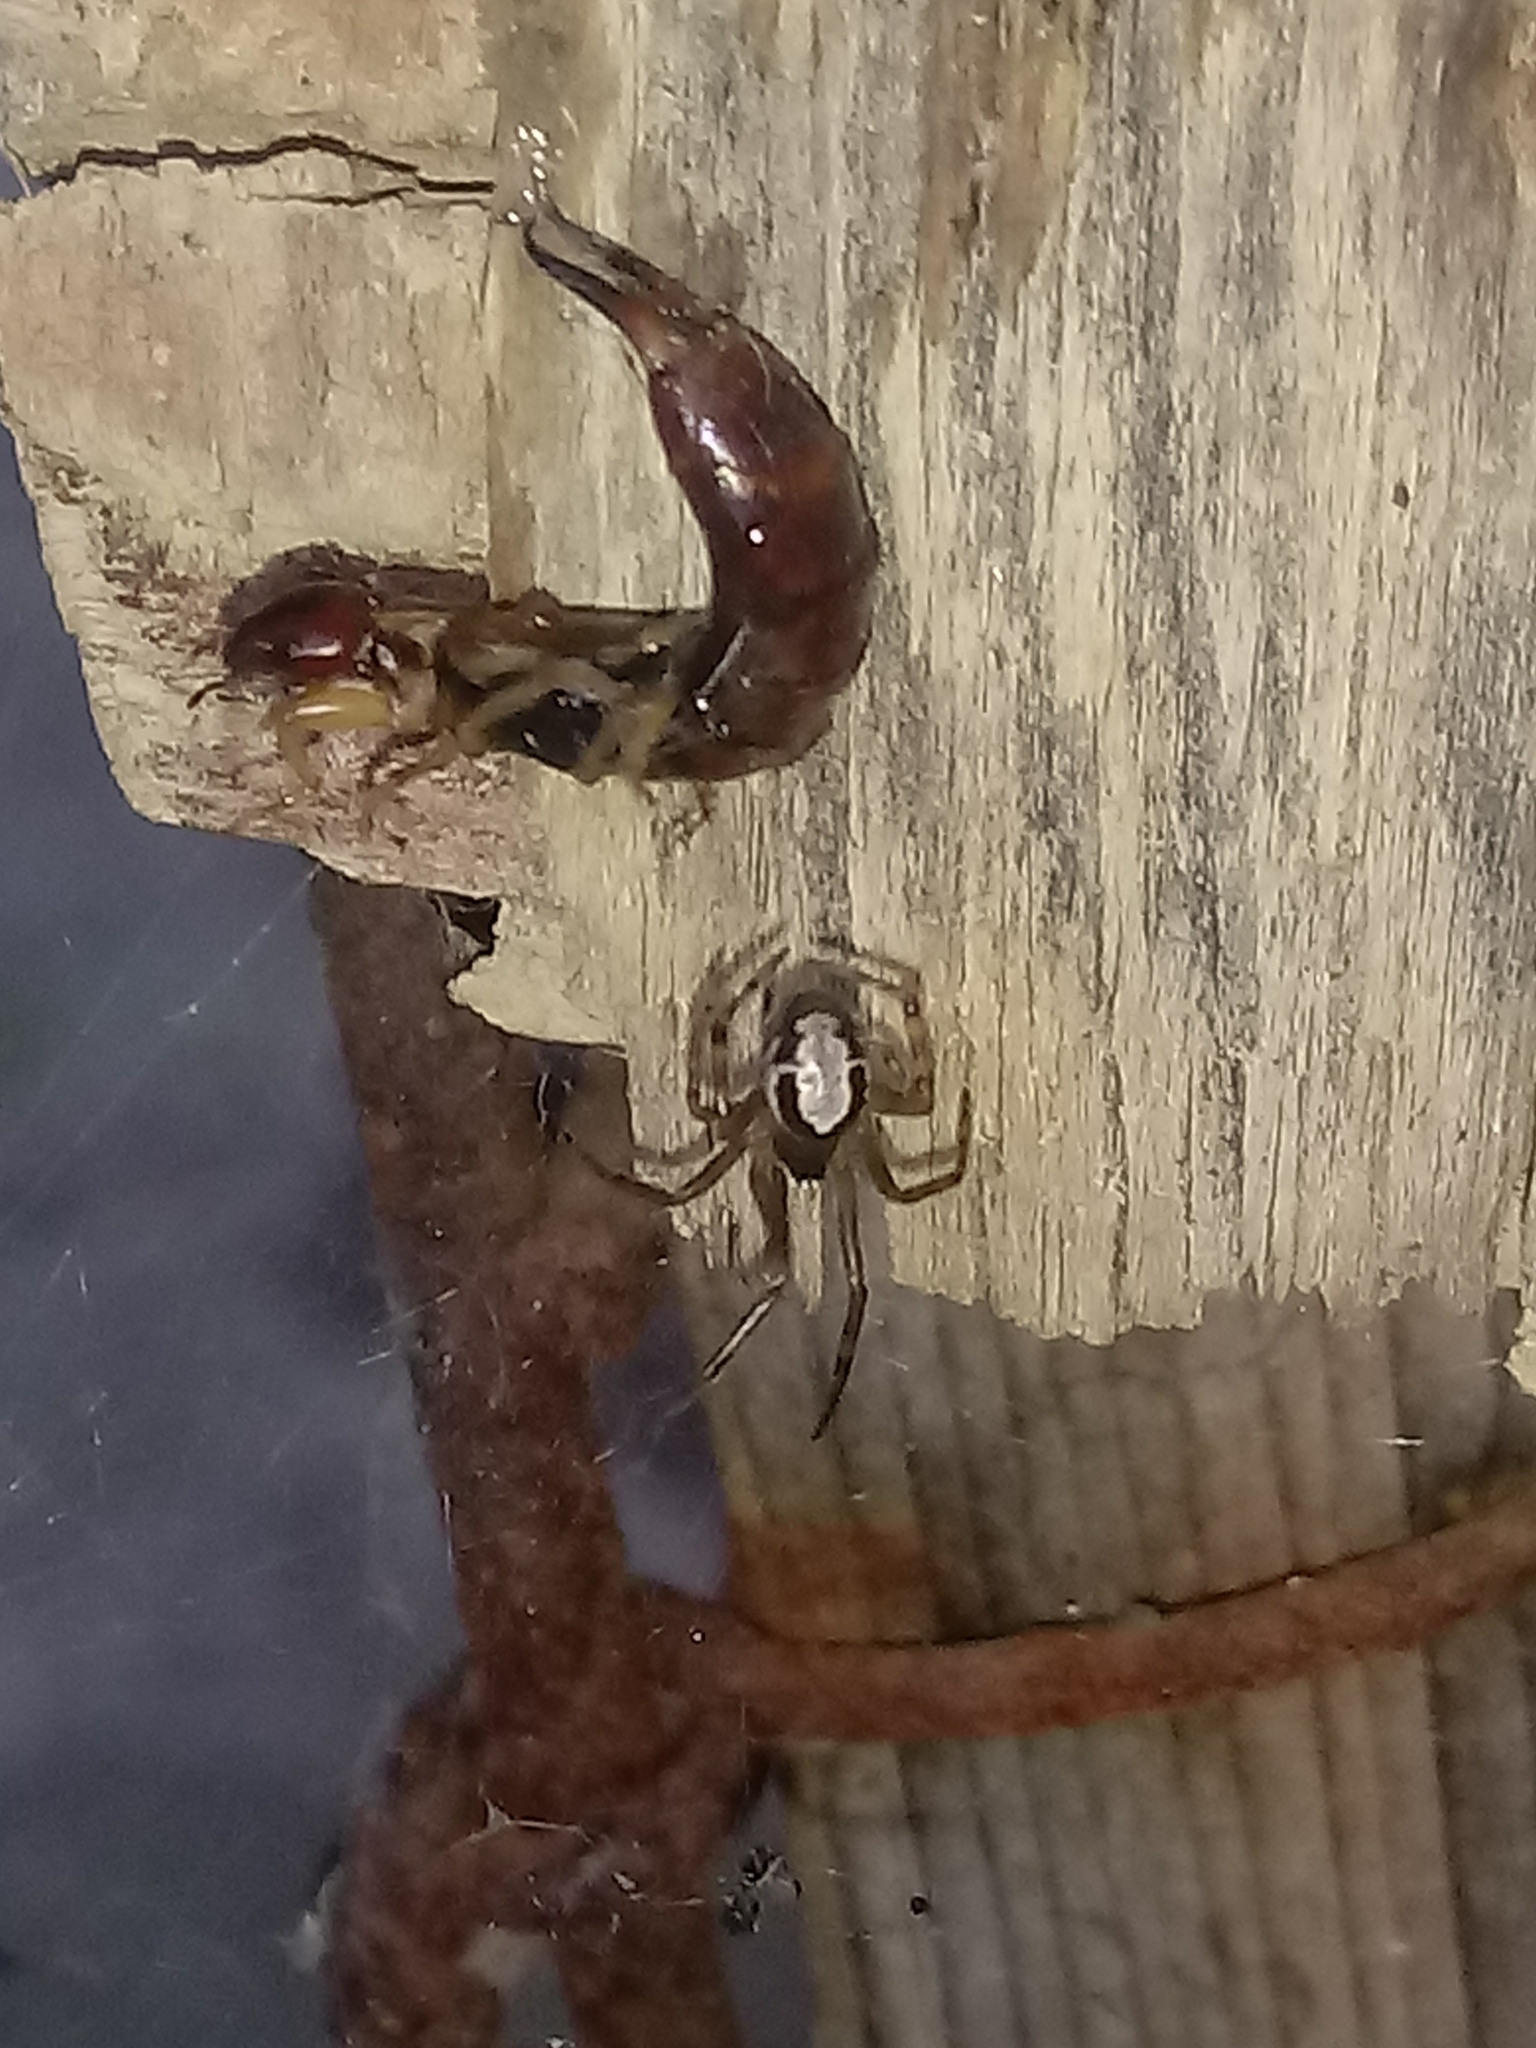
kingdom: Animalia
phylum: Arthropoda
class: Arachnida
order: Araneae
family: Theridiidae
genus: Steatoda
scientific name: Steatoda nobilis
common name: Cobweb weaver
